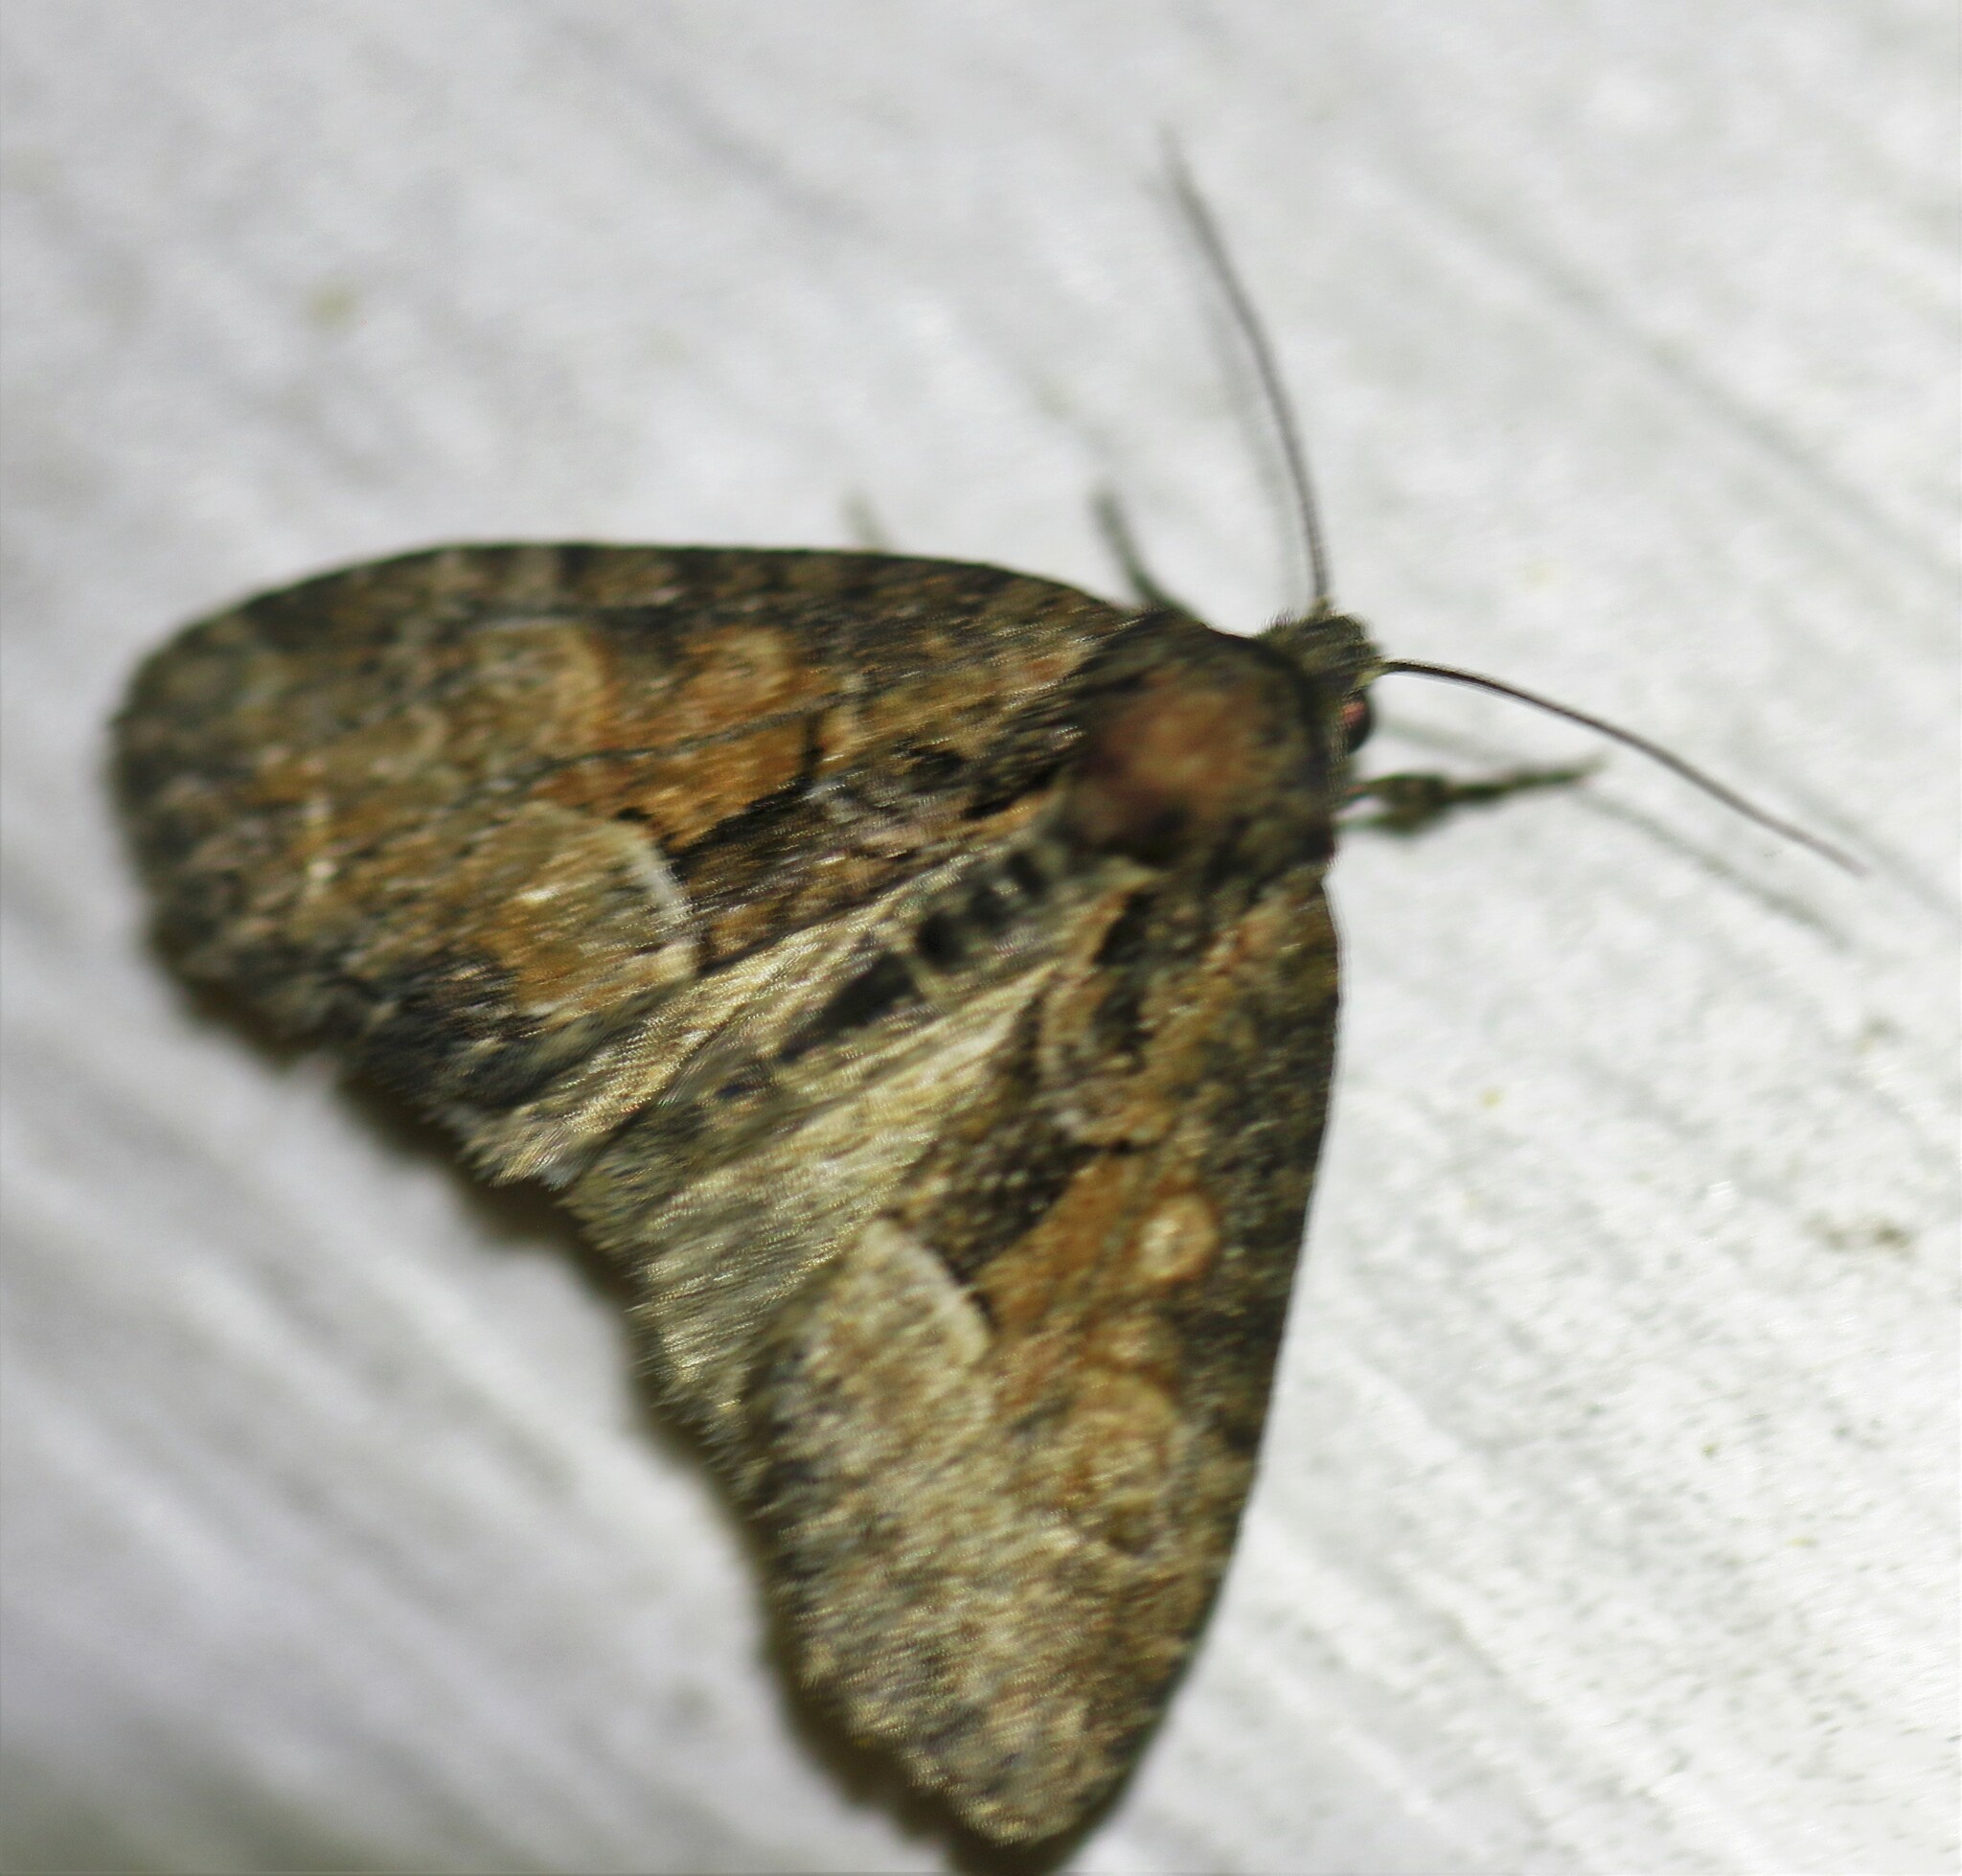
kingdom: Animalia
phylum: Arthropoda
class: Insecta
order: Lepidoptera
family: Noctuidae
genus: Neoligia
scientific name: Neoligia subjuncta
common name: Connected brocade
